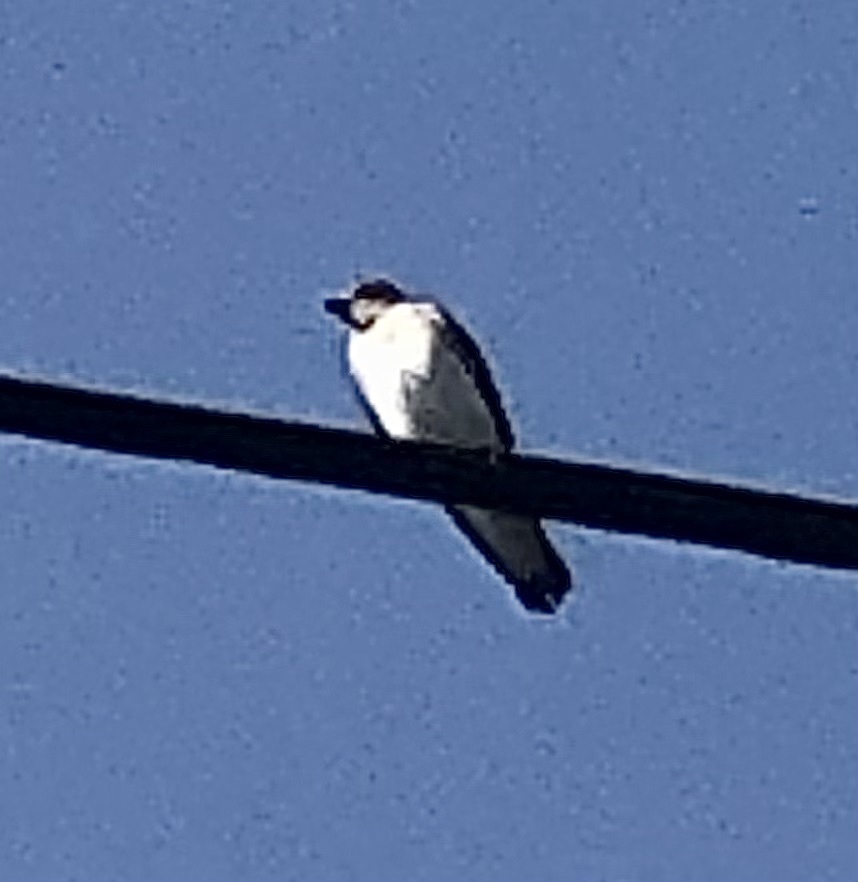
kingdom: Animalia
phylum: Chordata
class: Aves
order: Passeriformes
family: Hirundinidae
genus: Stelgidopteryx
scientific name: Stelgidopteryx serripennis
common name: Northern rough-winged swallow
